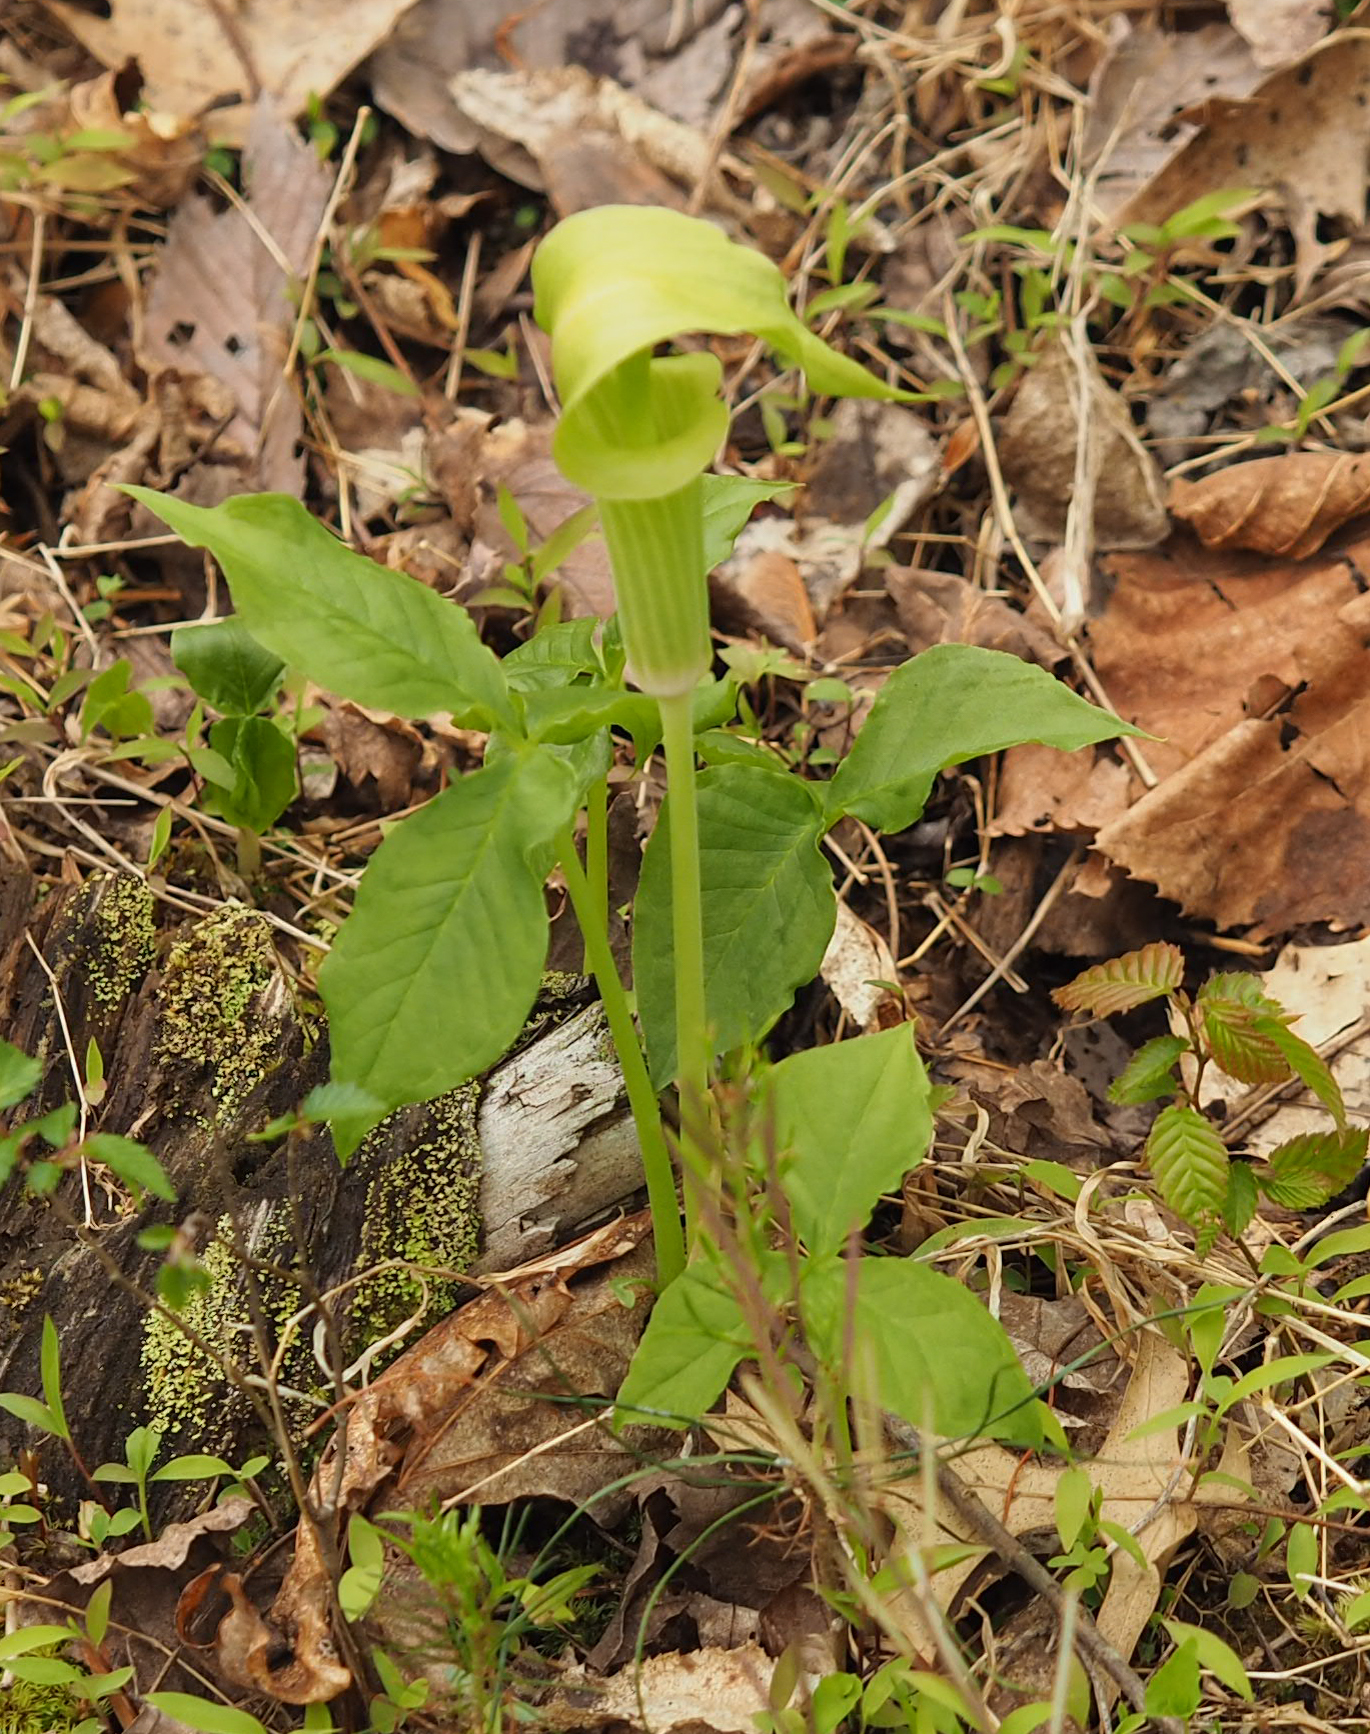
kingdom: Plantae
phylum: Tracheophyta
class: Liliopsida
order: Alismatales
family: Araceae
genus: Arisaema
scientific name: Arisaema triphyllum
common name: Jack-in-the-pulpit
